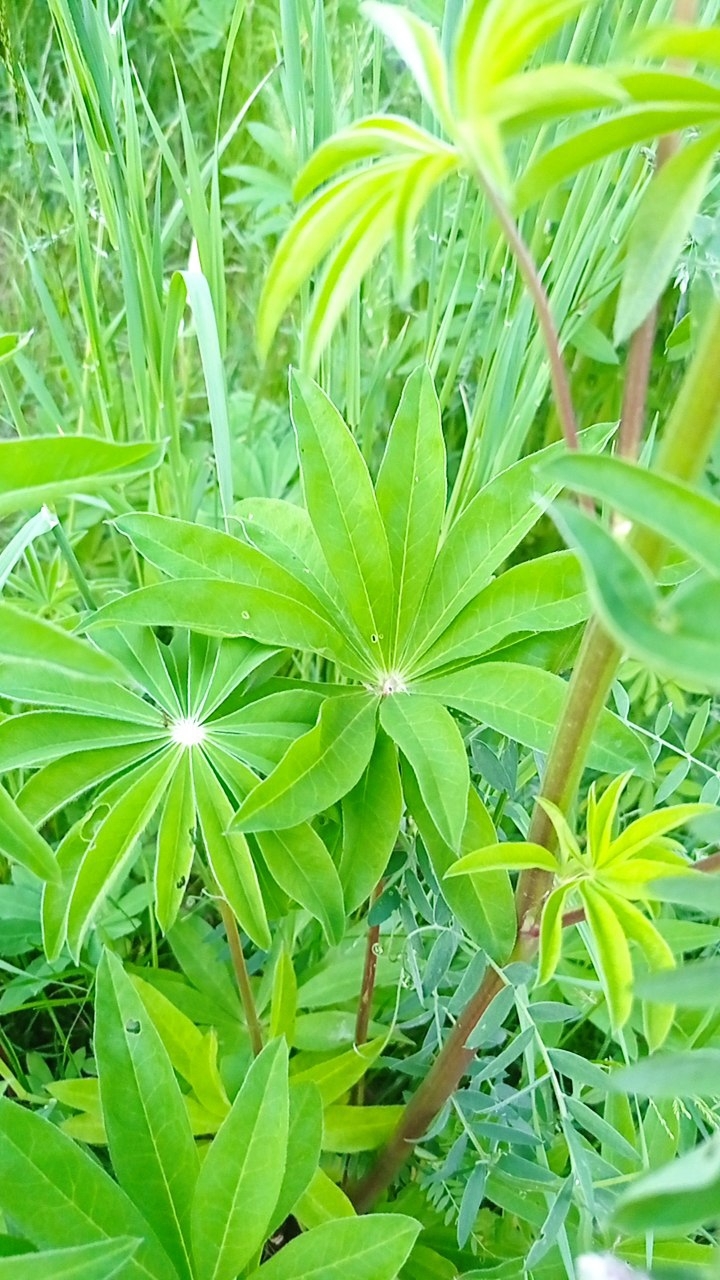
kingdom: Plantae
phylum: Tracheophyta
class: Magnoliopsida
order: Fabales
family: Fabaceae
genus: Lupinus
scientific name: Lupinus polyphyllus
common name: Garden lupin
